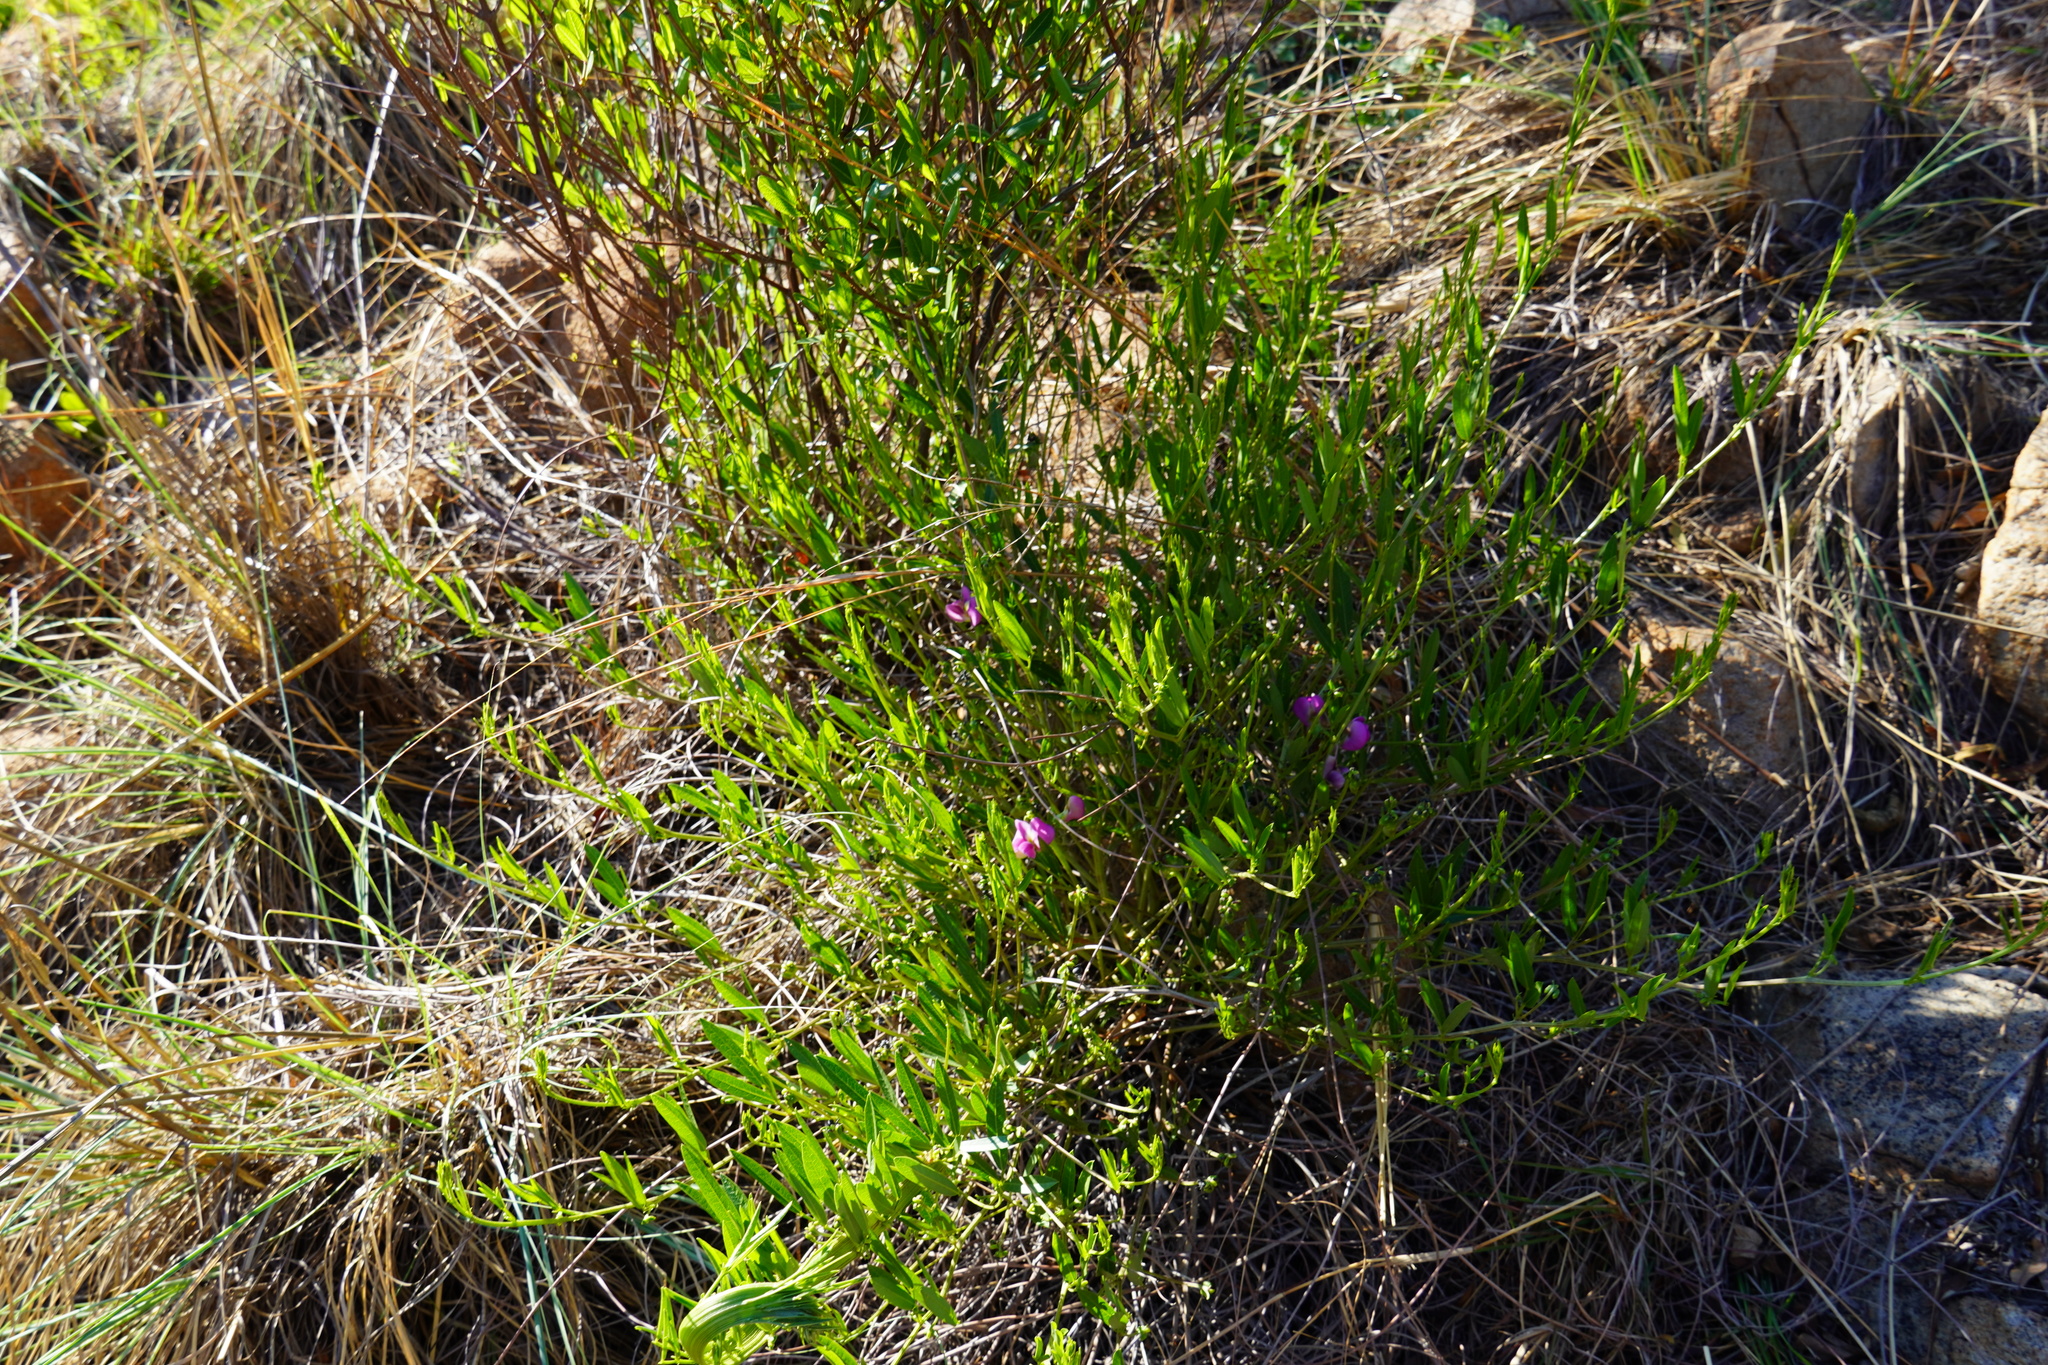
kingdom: Plantae
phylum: Tracheophyta
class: Magnoliopsida
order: Fabales
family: Fabaceae
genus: Sphenostylis
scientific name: Sphenostylis angustifolia
